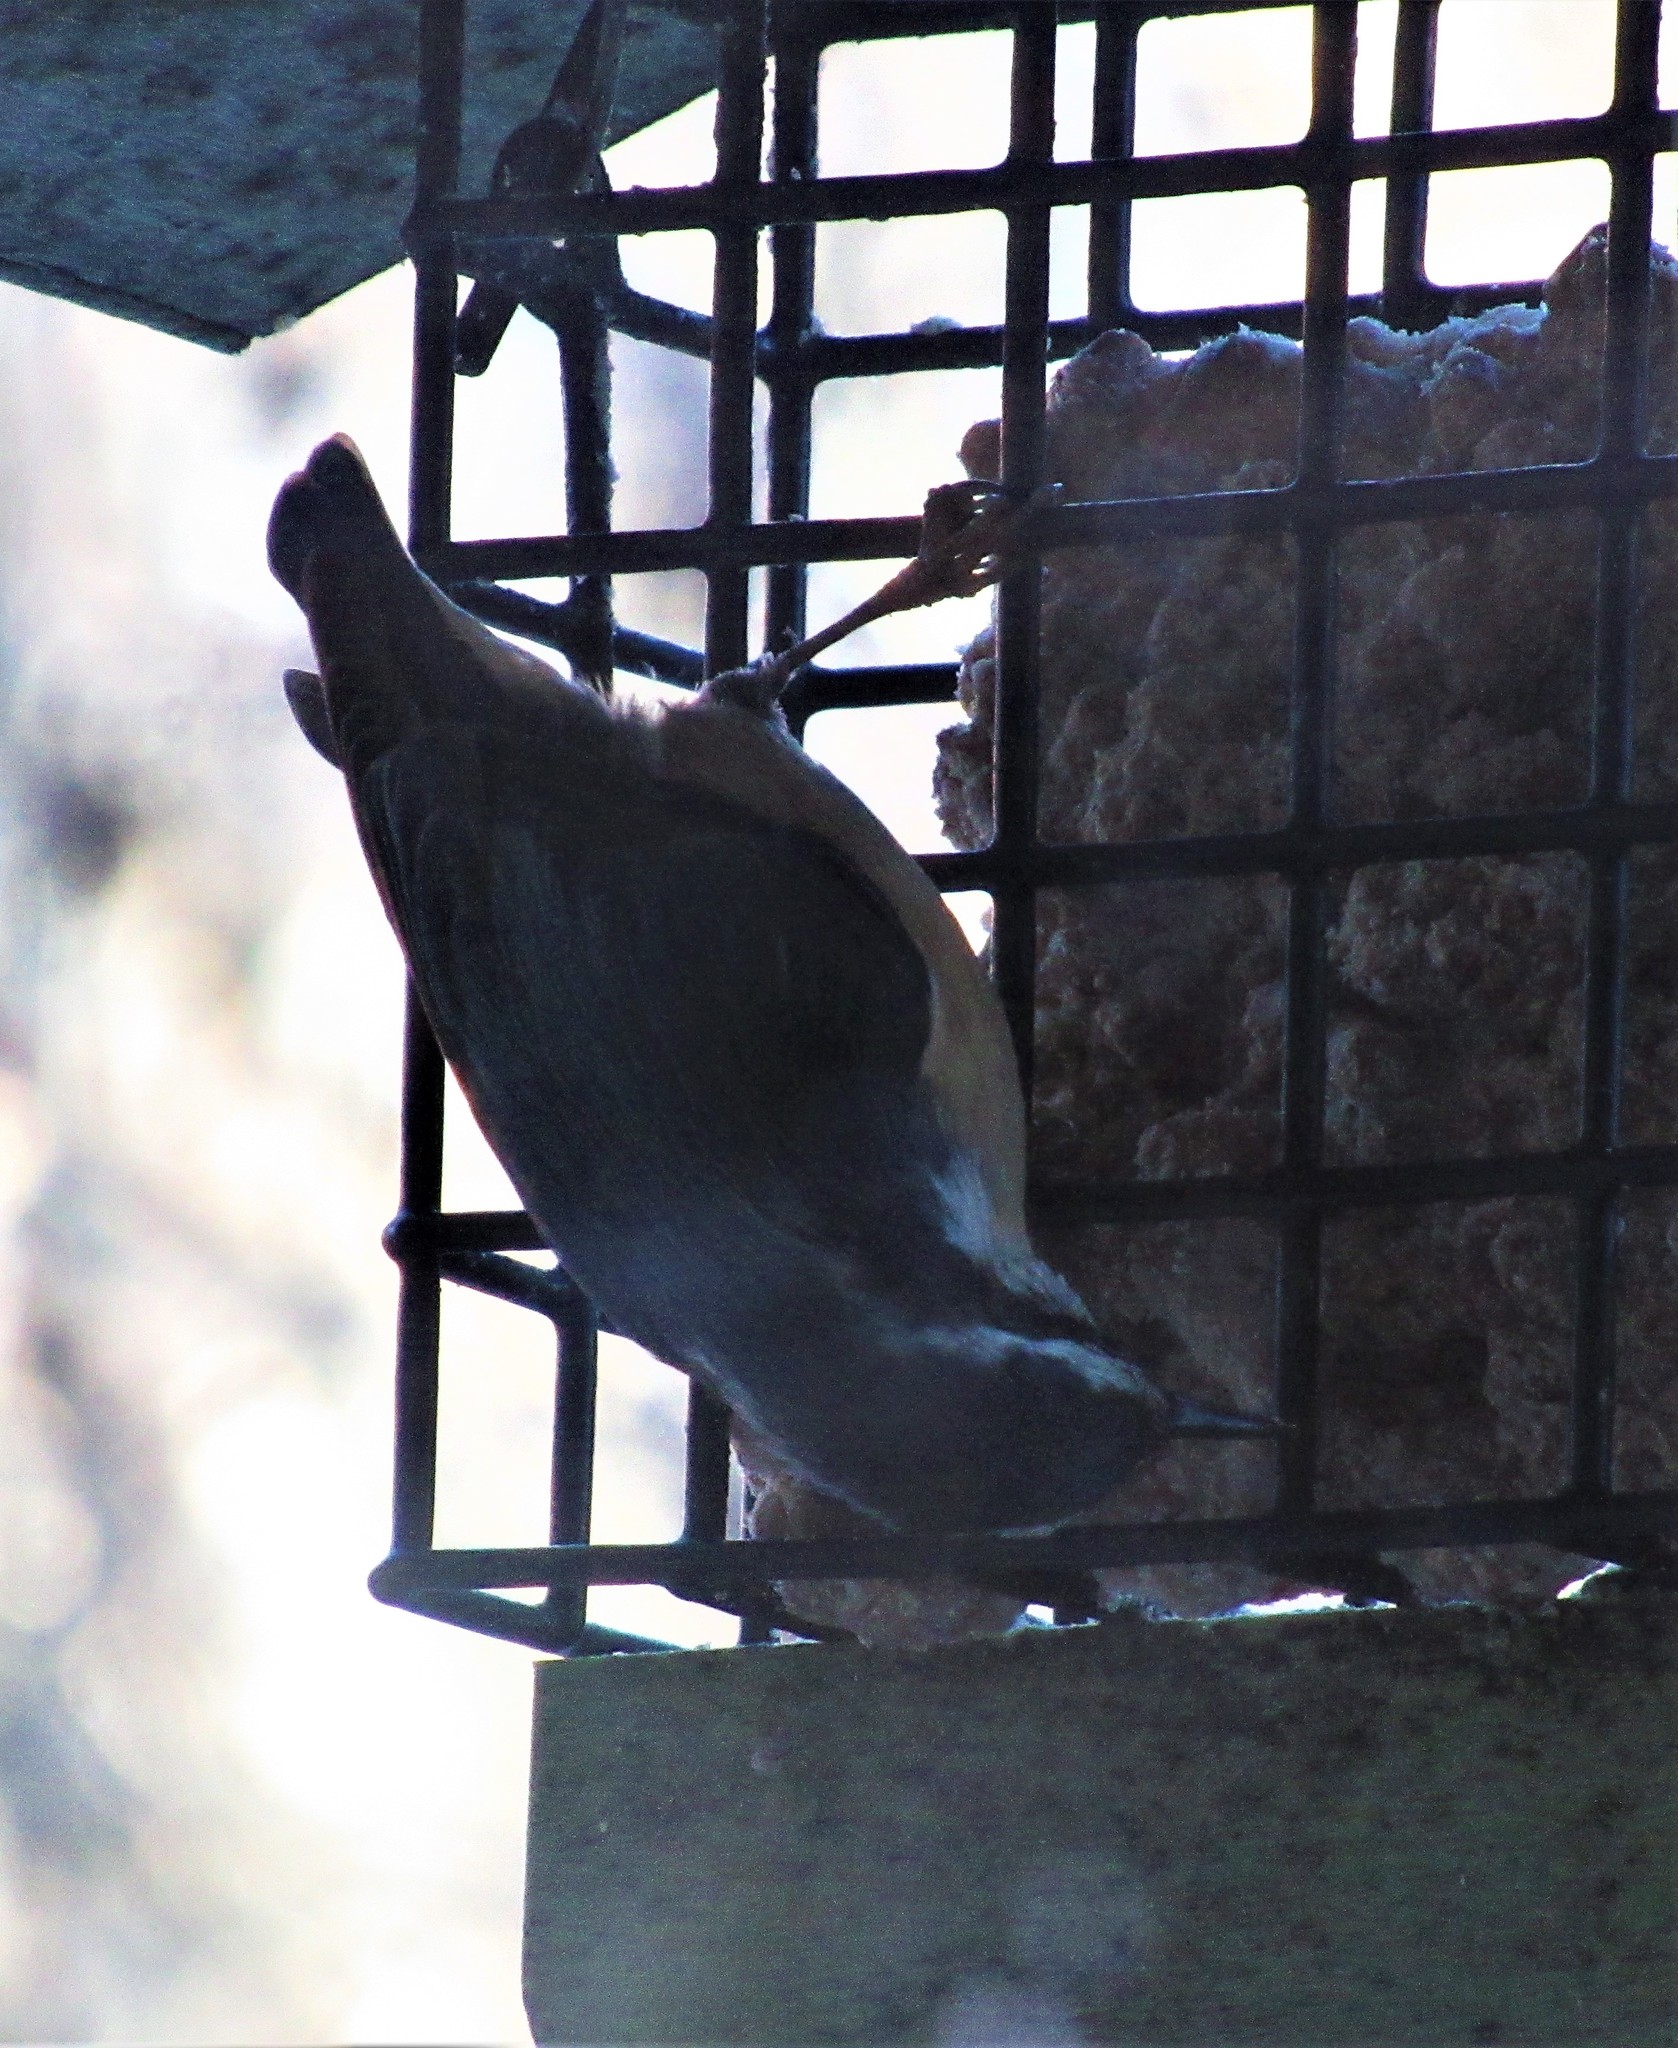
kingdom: Animalia
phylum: Chordata
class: Aves
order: Passeriformes
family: Sittidae
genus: Sitta
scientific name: Sitta canadensis
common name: Red-breasted nuthatch
